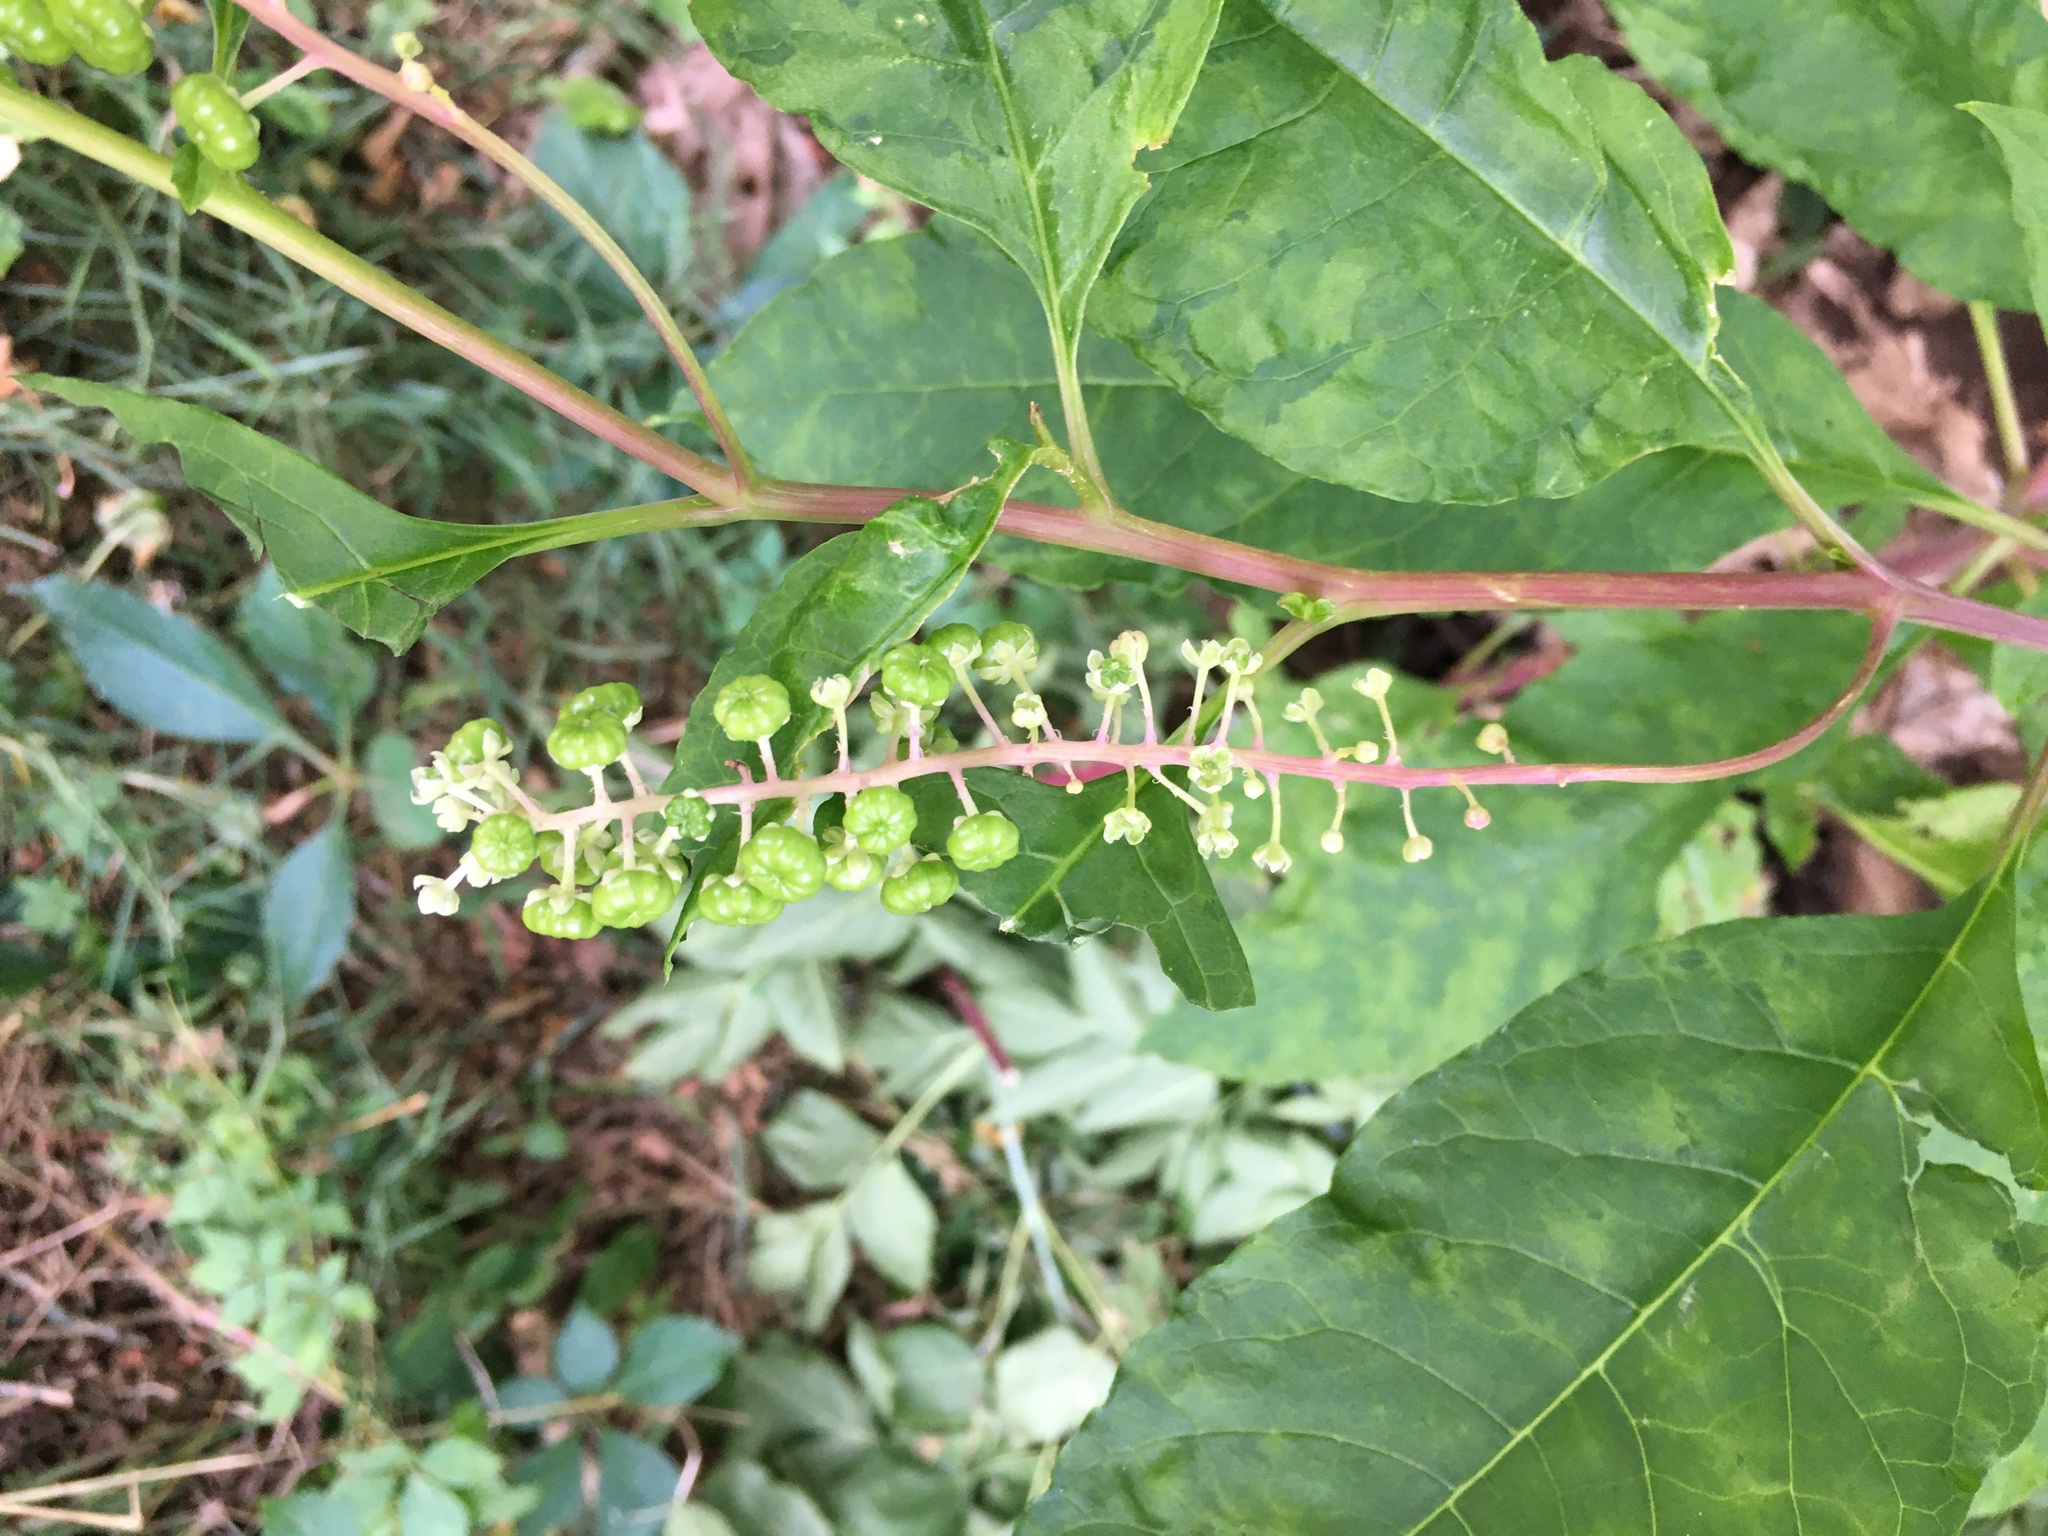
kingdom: Plantae
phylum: Tracheophyta
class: Magnoliopsida
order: Caryophyllales
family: Phytolaccaceae
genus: Phytolacca
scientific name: Phytolacca americana
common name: American pokeweed
